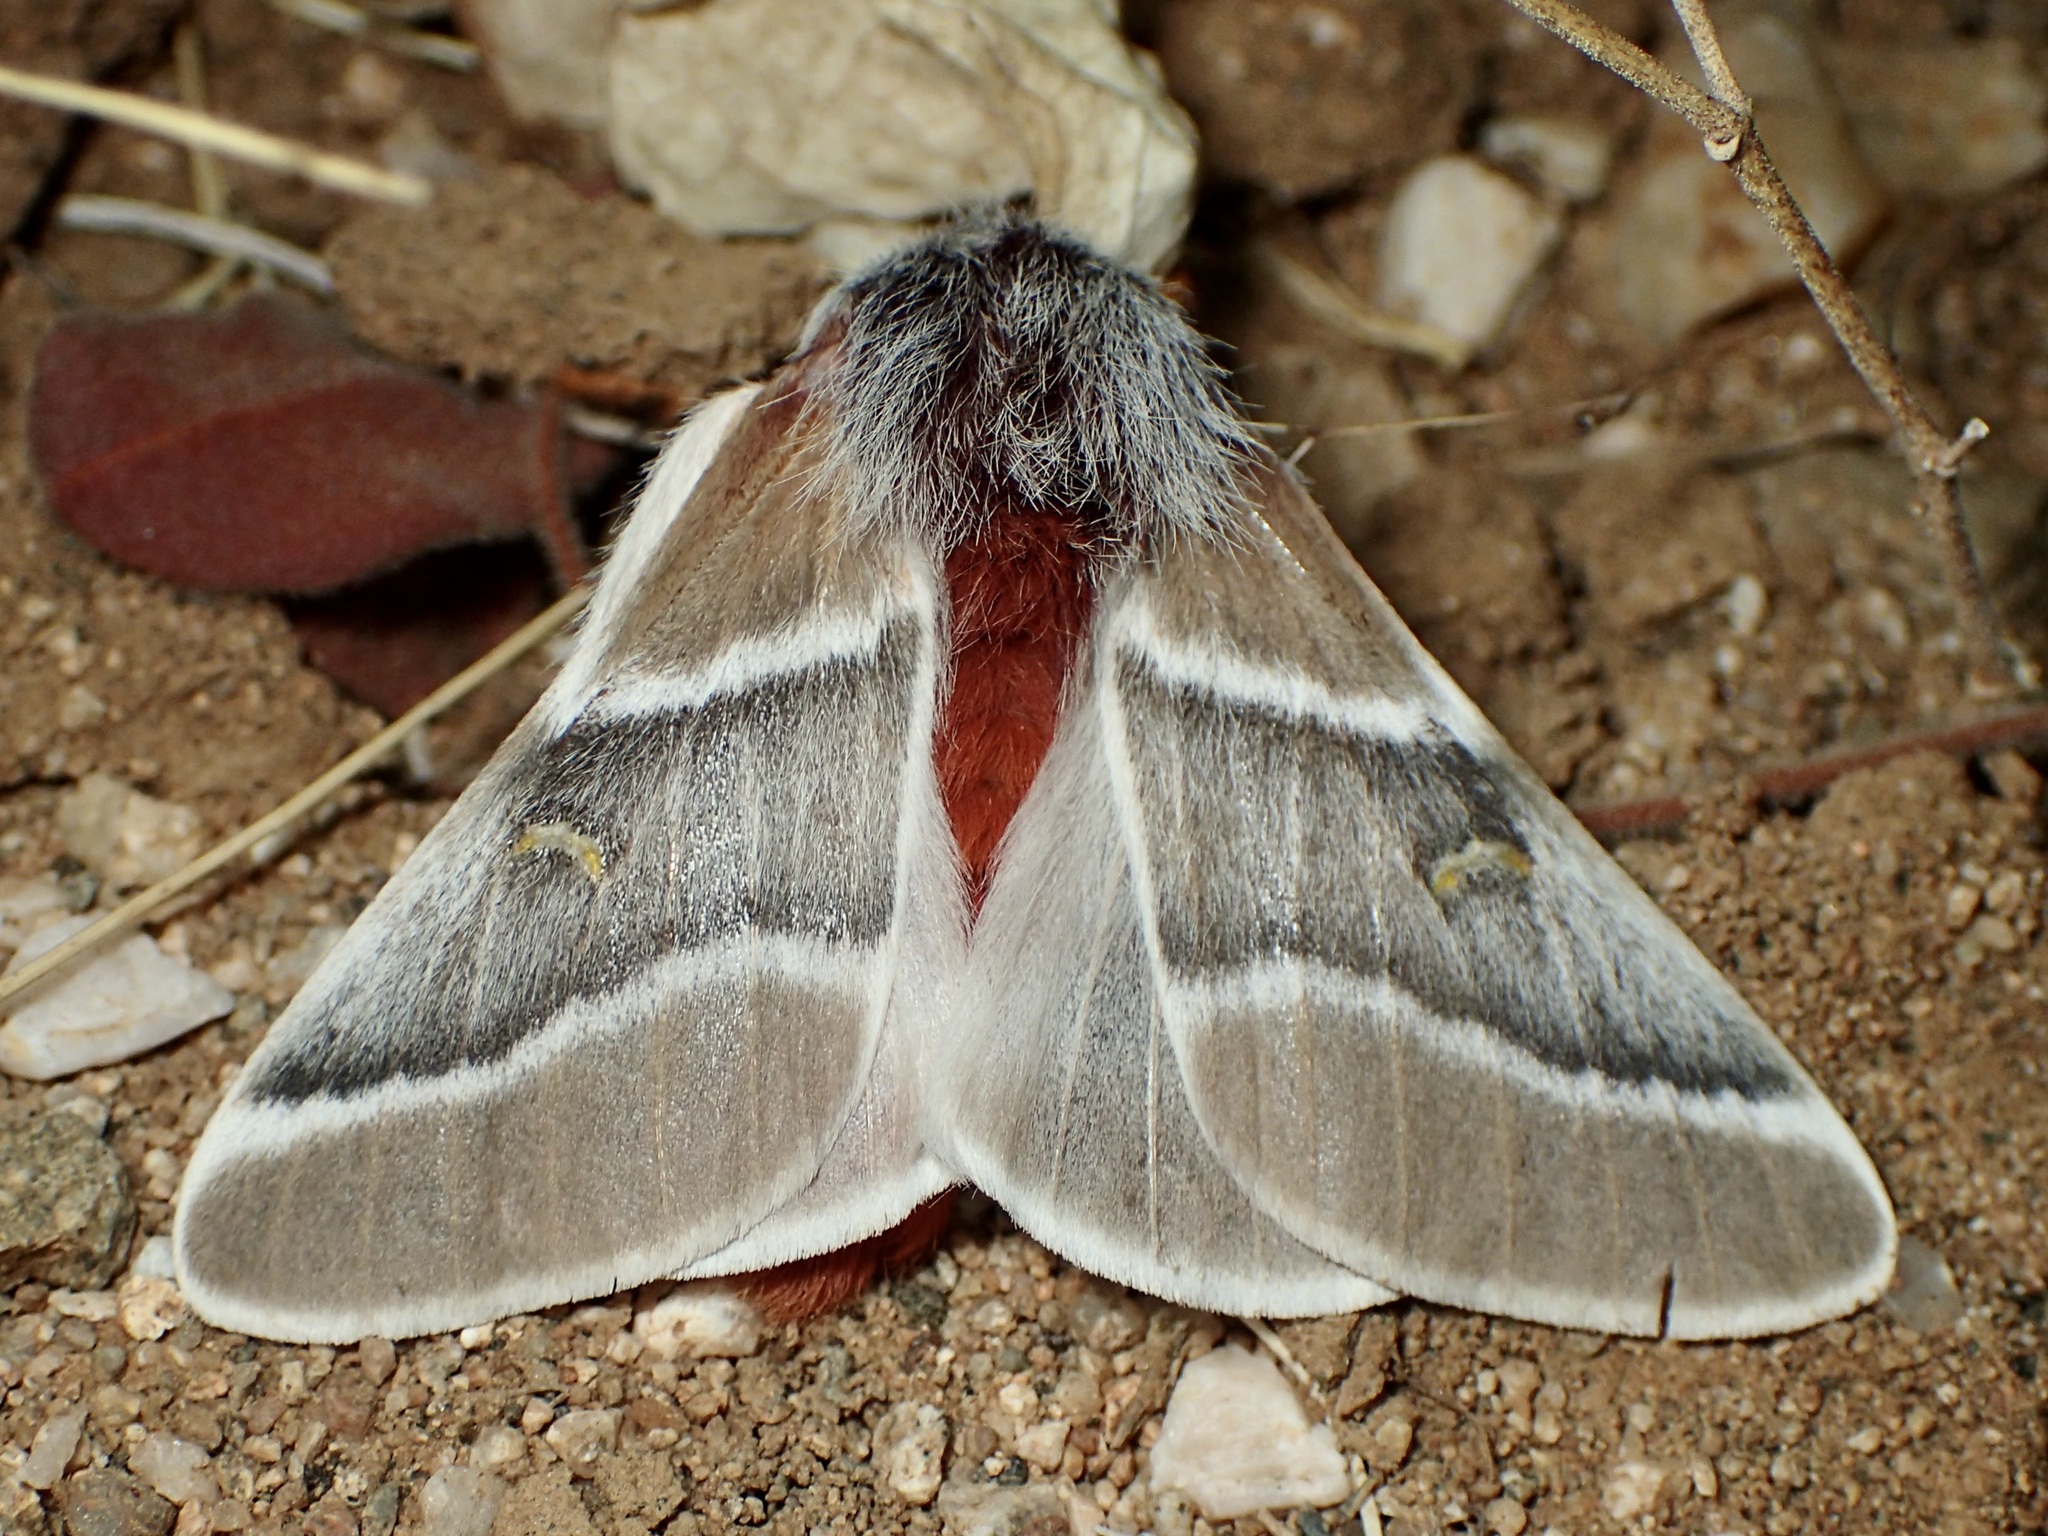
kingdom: Animalia
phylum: Arthropoda
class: Insecta
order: Lepidoptera
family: Saturniidae
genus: Hemileuca
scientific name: Hemileuca sororius
